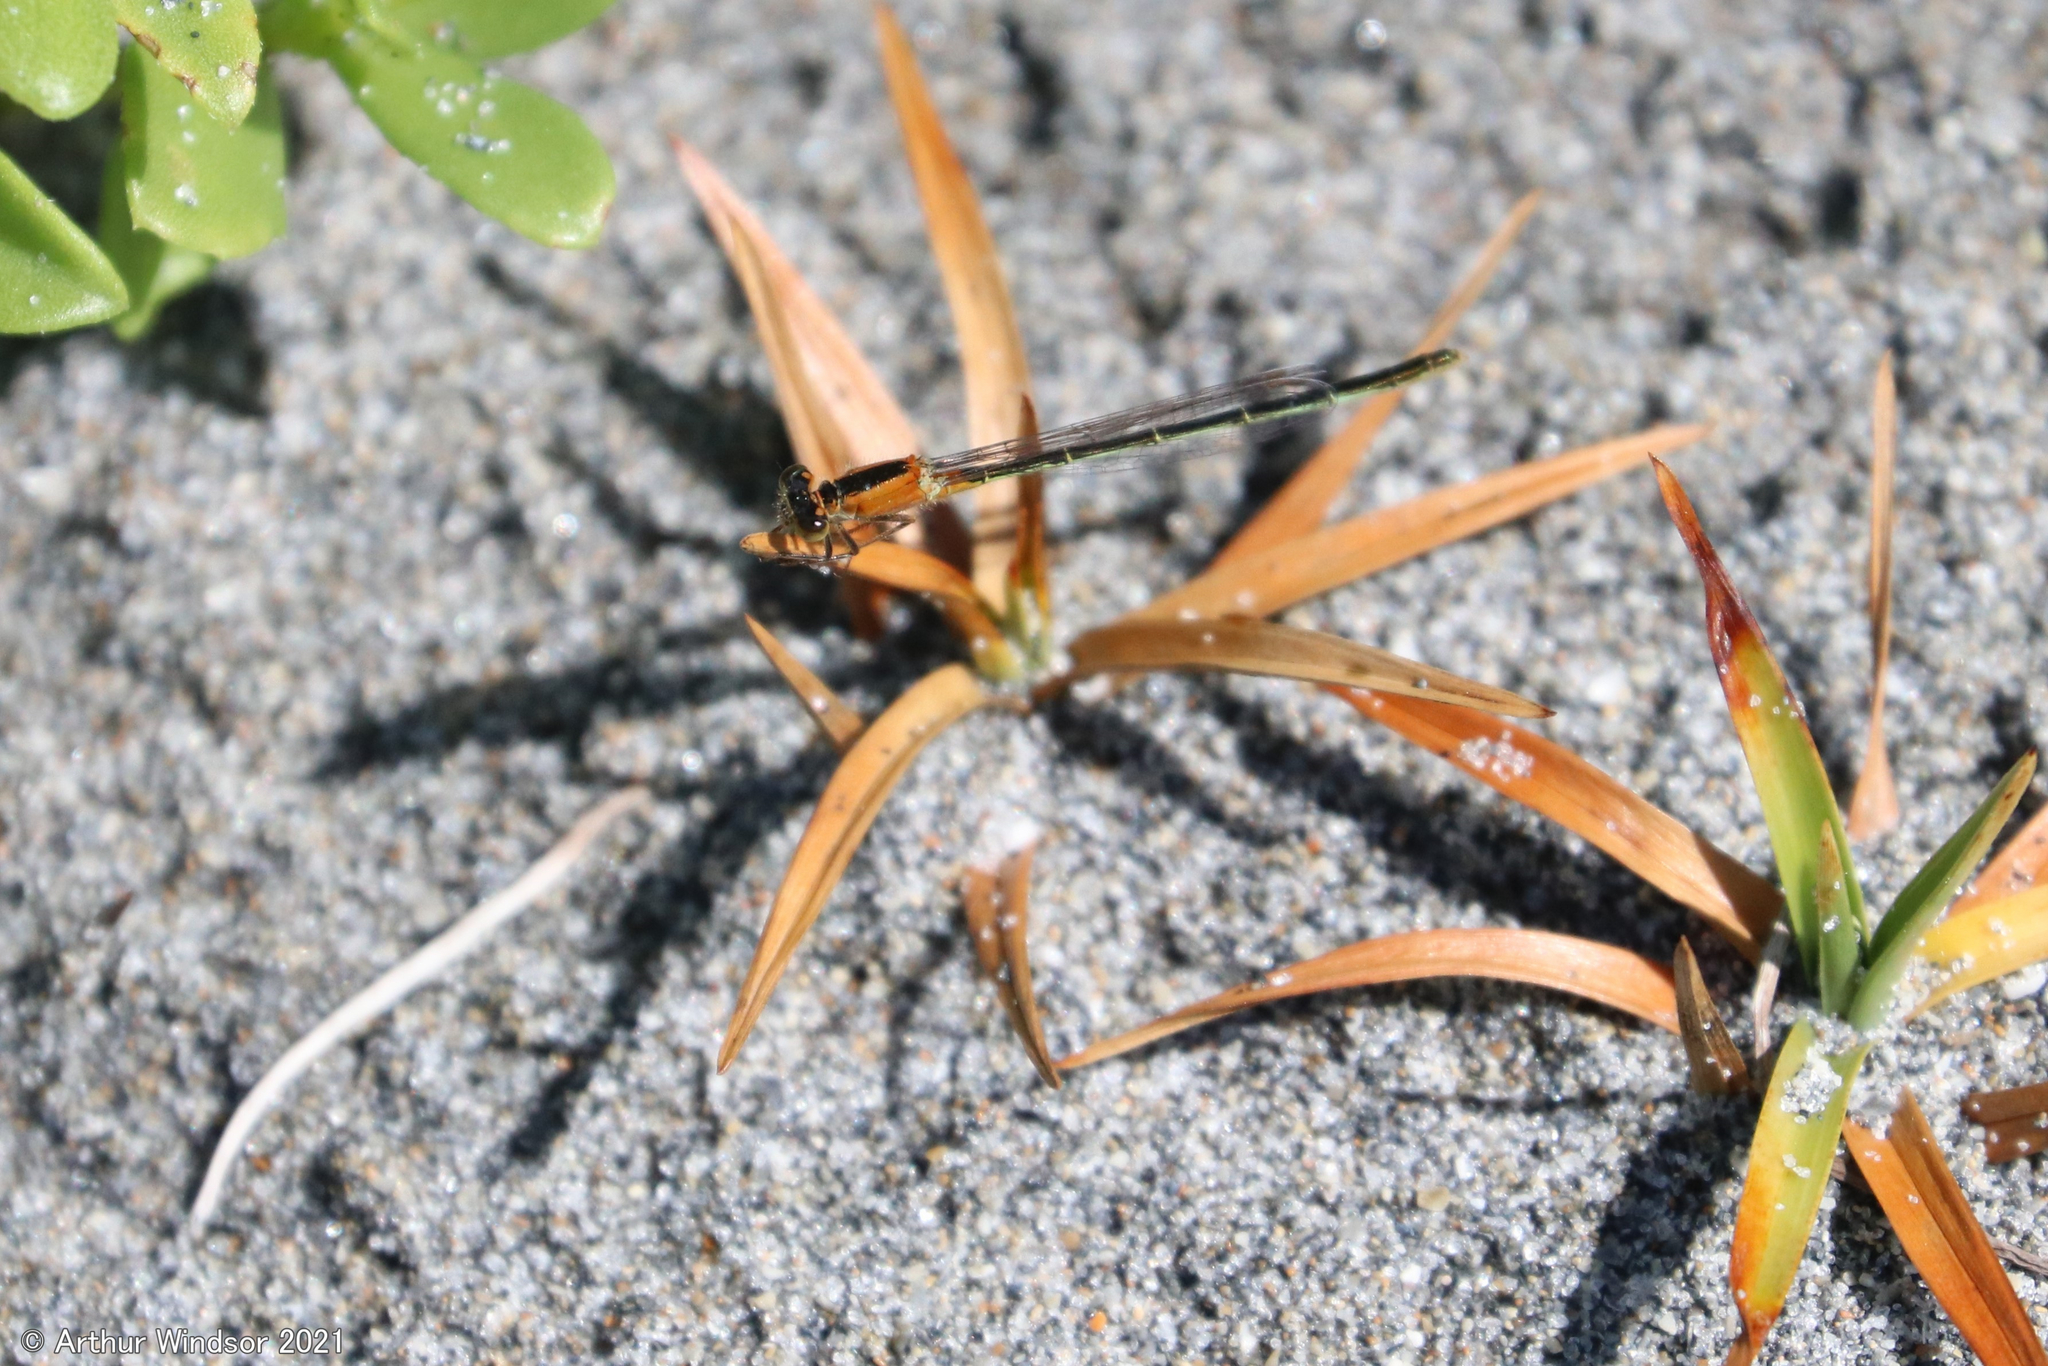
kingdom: Animalia
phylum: Arthropoda
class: Insecta
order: Odonata
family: Coenagrionidae
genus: Ischnura
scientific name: Ischnura ramburii
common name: Rambur's forktail
